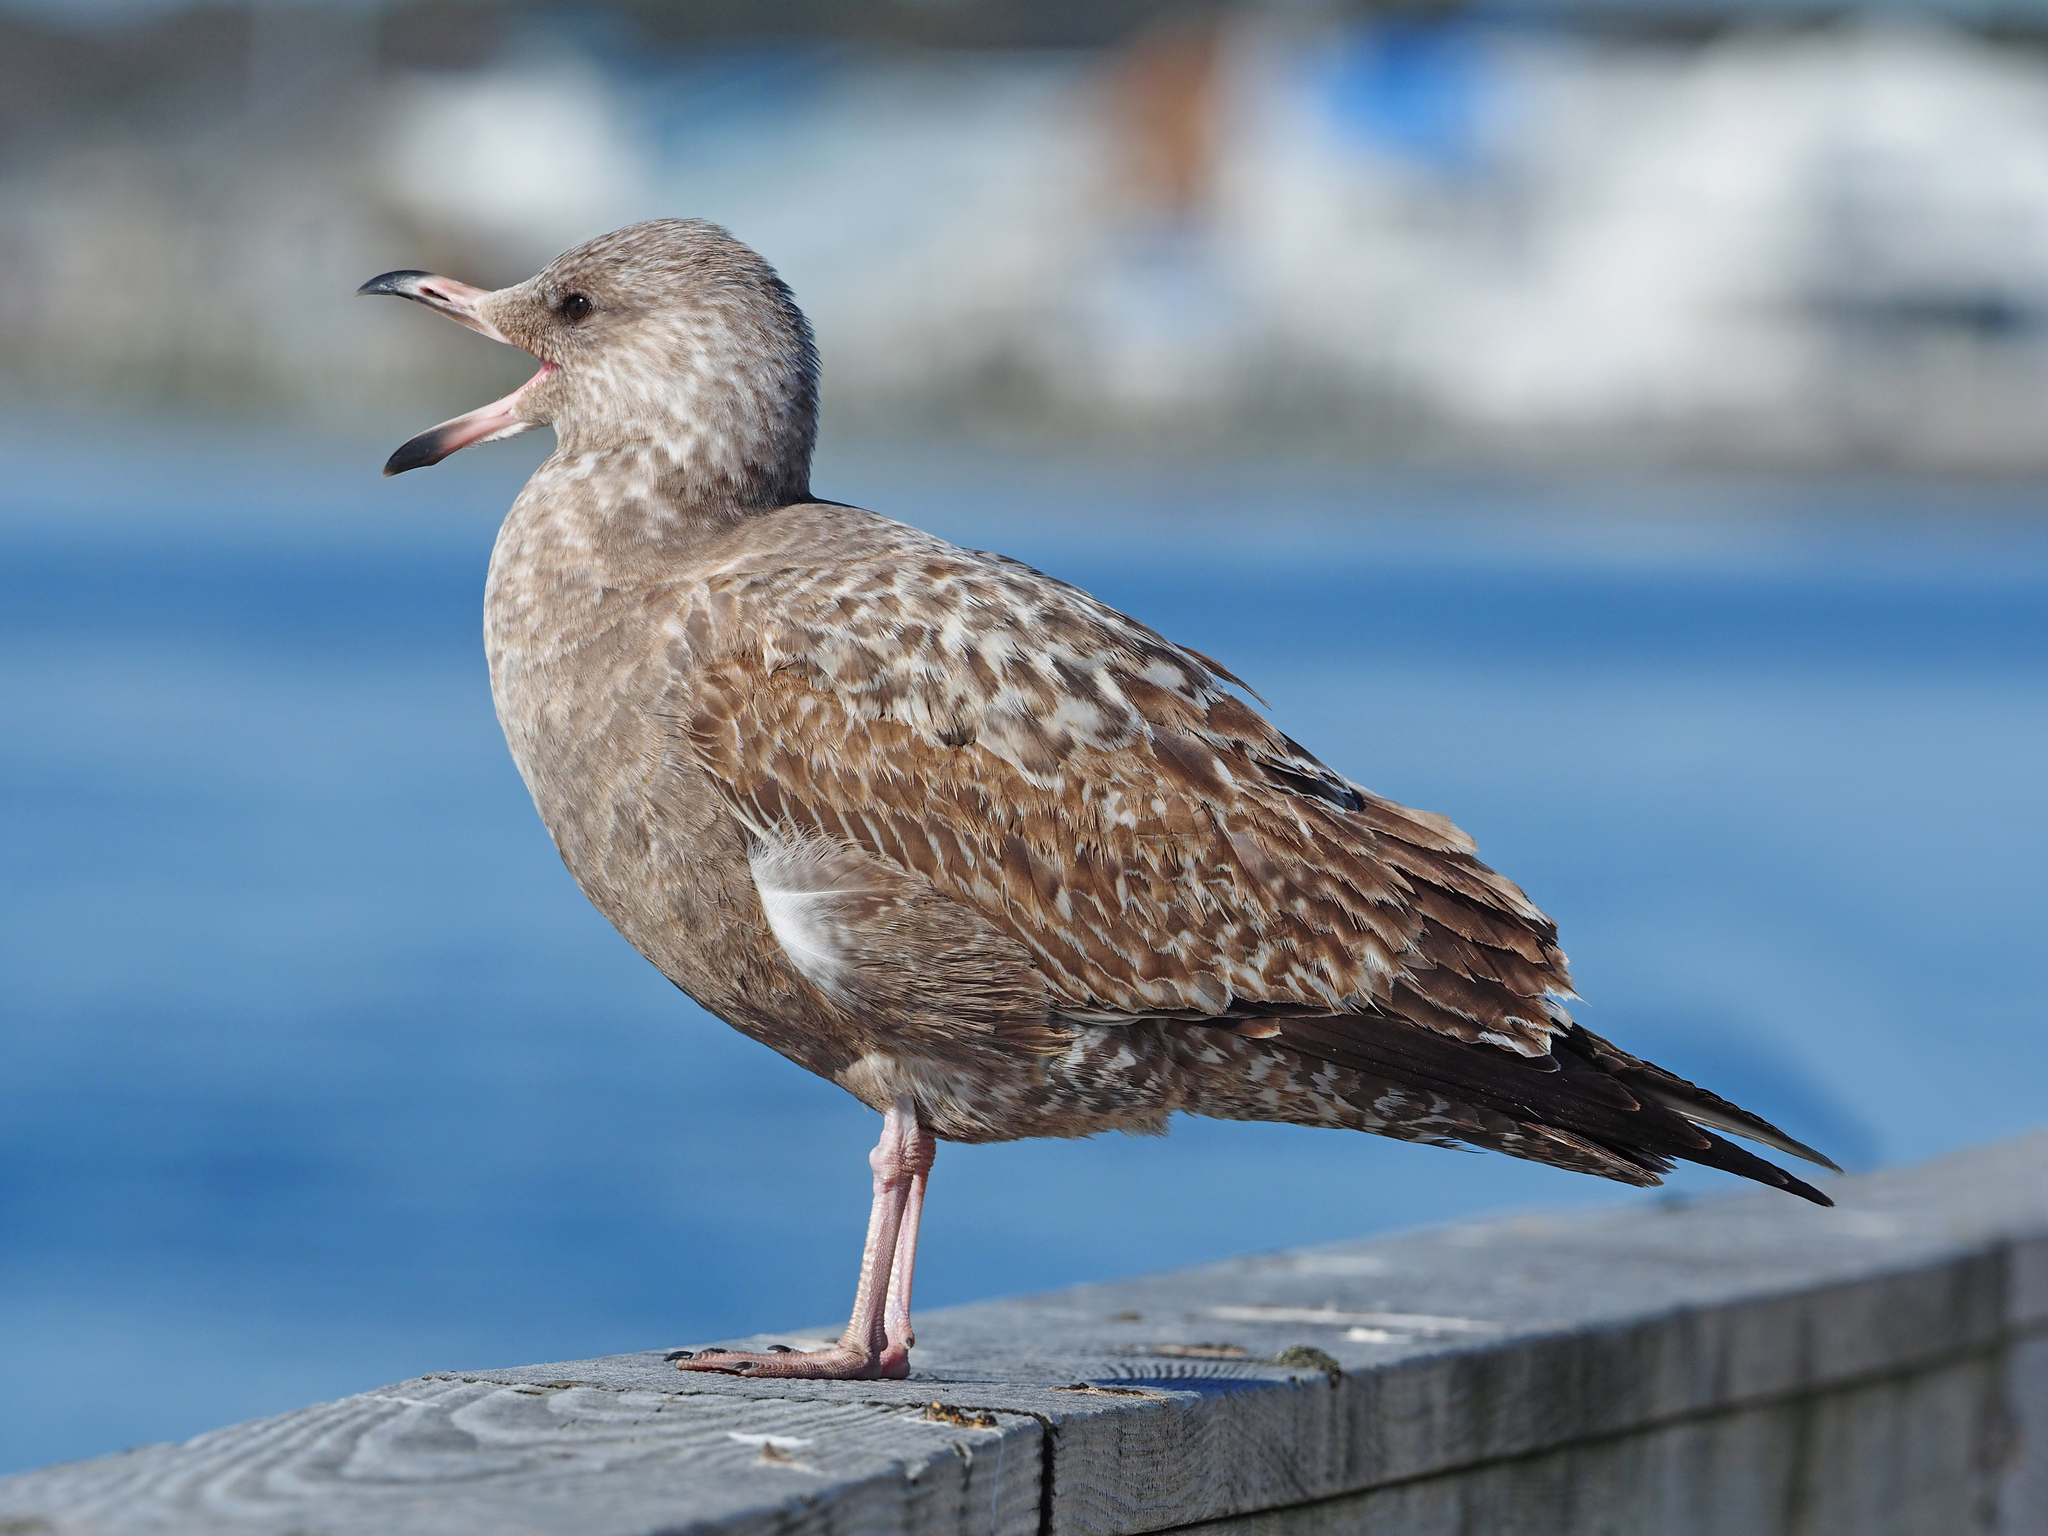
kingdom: Animalia
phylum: Chordata
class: Aves
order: Charadriiformes
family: Laridae
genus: Larus
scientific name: Larus argentatus
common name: Herring gull
